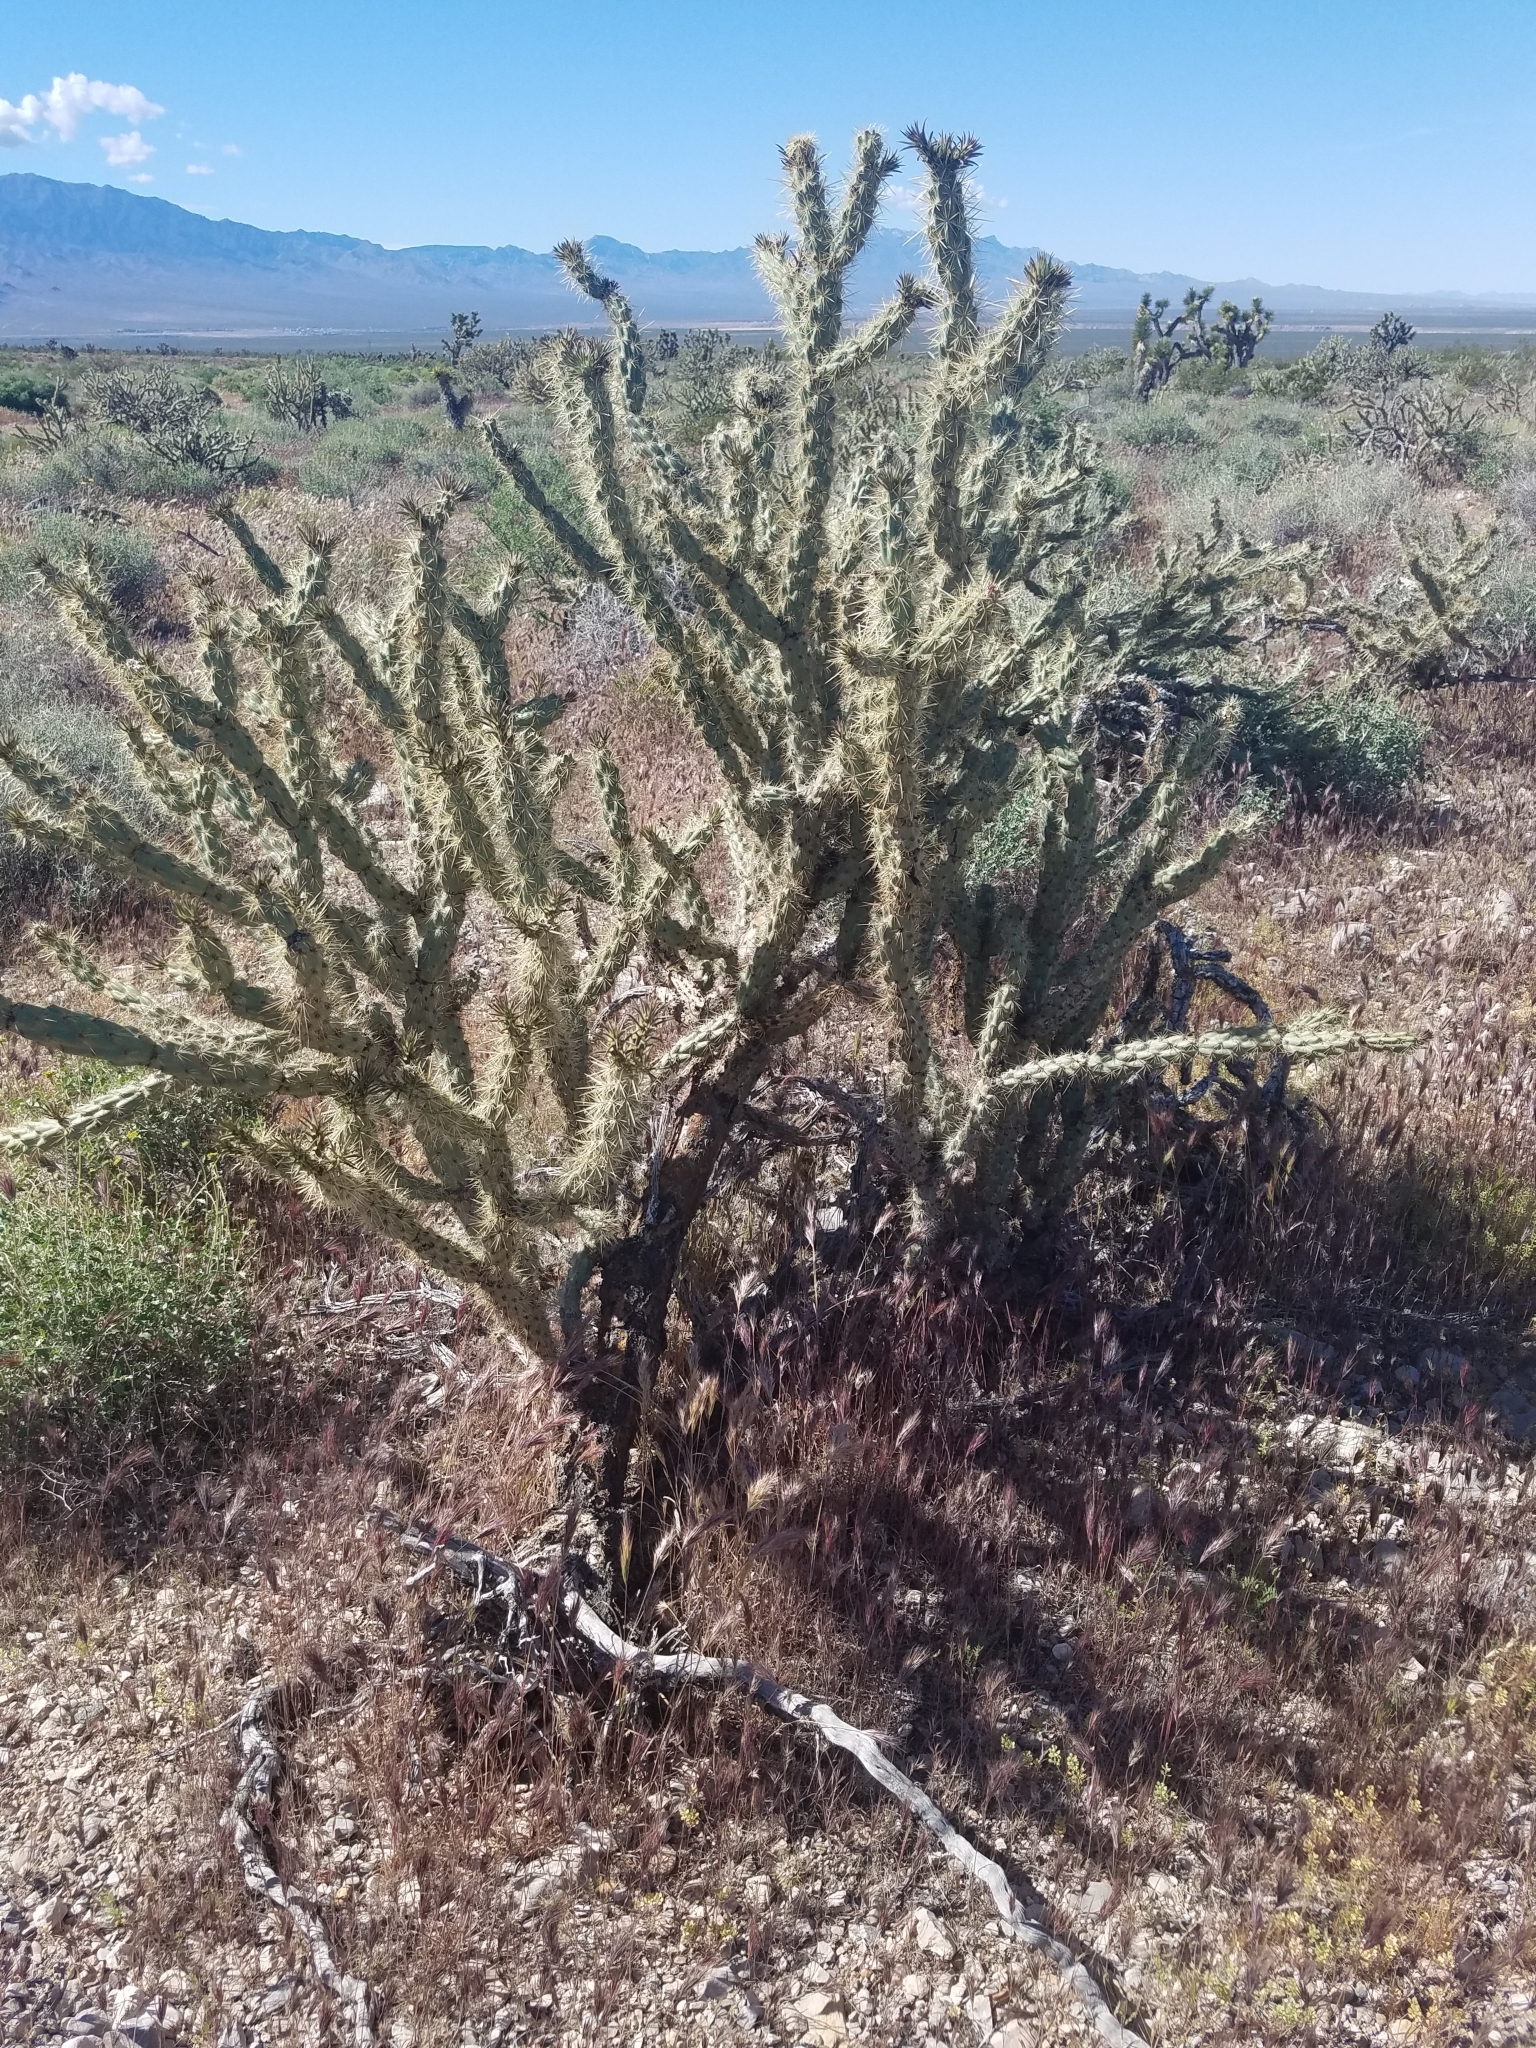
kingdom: Plantae
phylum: Tracheophyta
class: Magnoliopsida
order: Caryophyllales
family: Cactaceae
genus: Cylindropuntia
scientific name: Cylindropuntia acanthocarpa
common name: Buckhorn cholla
